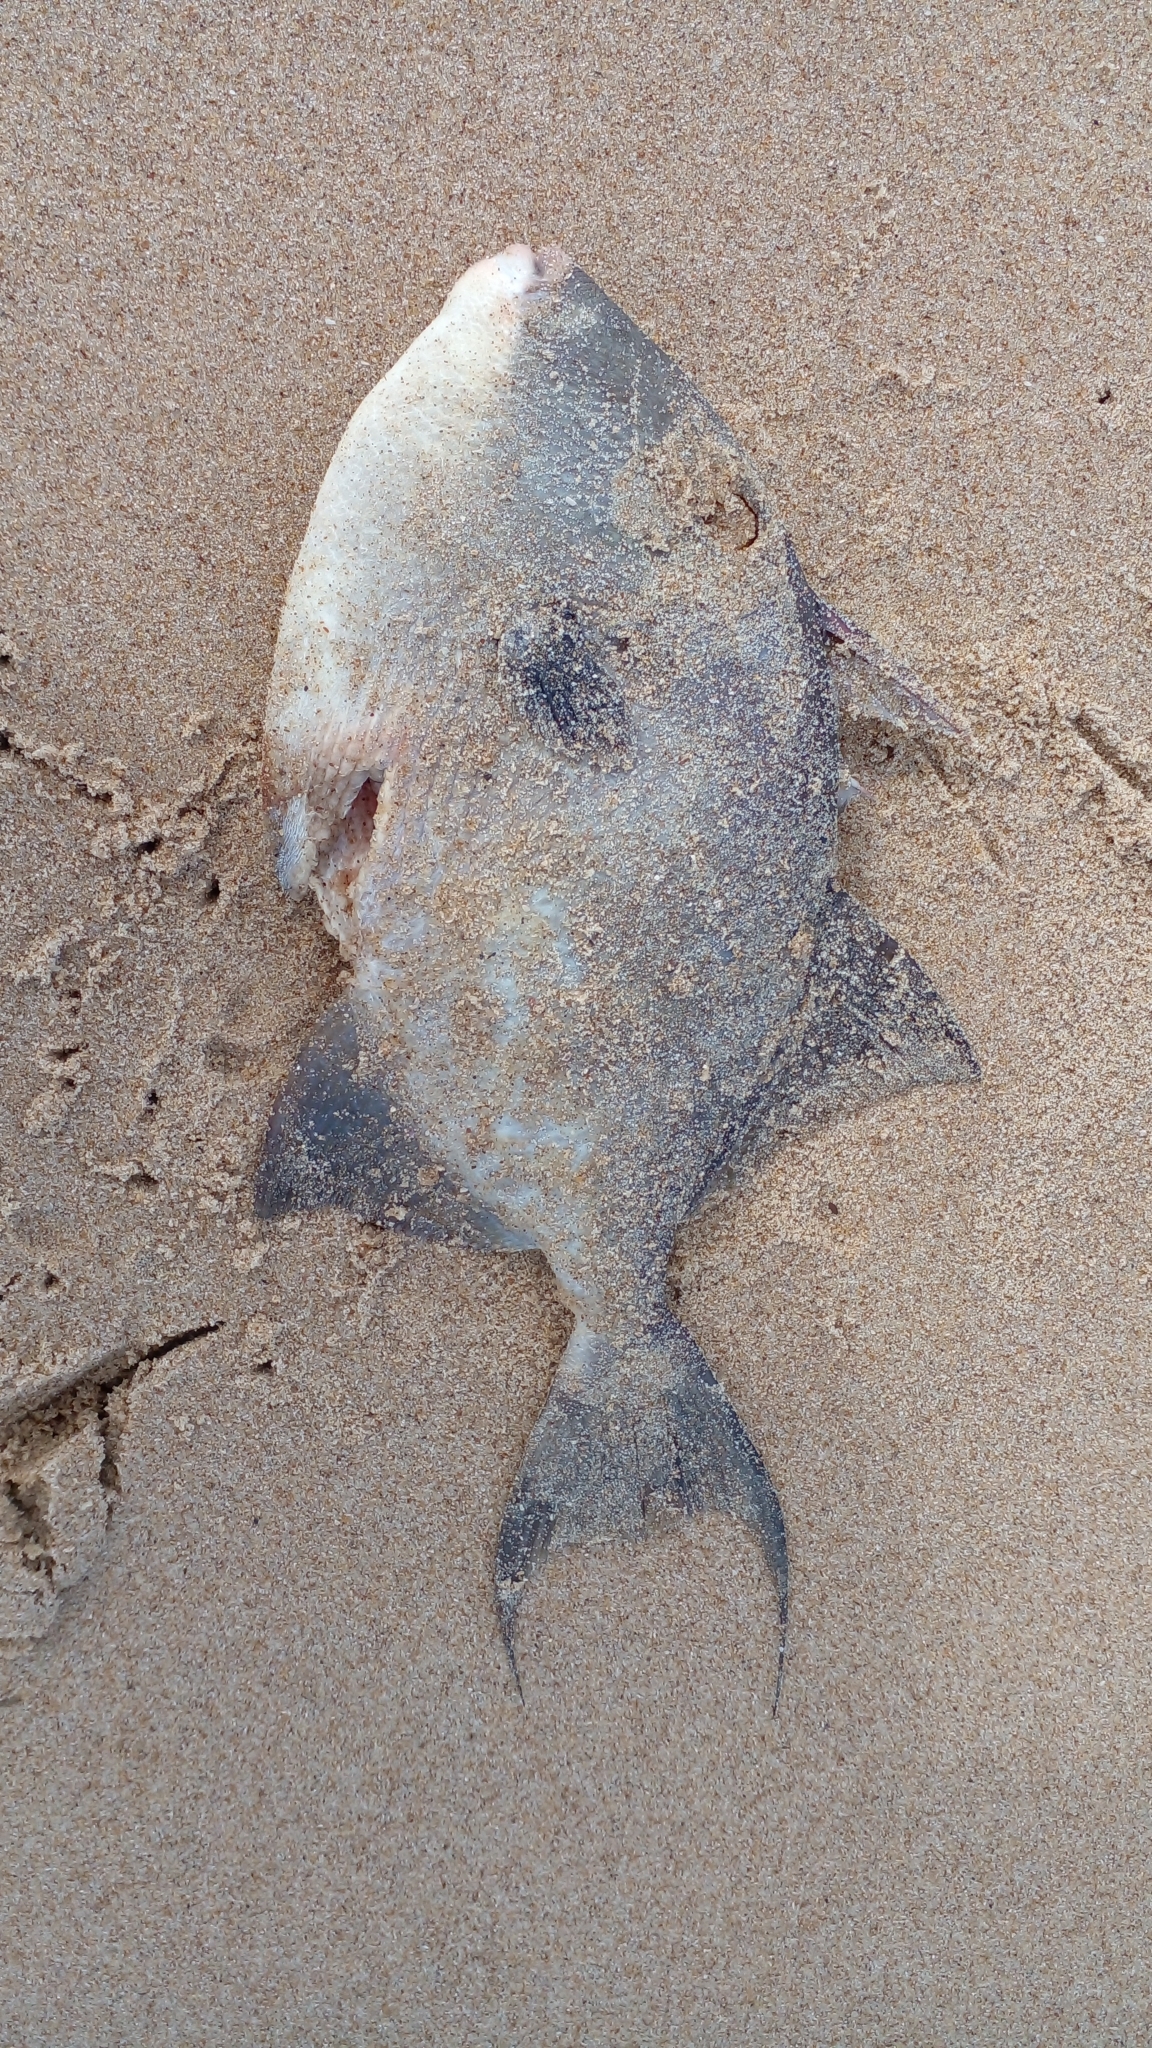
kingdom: Animalia
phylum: Chordata
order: Tetraodontiformes
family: Balistidae
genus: Balistes
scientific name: Balistes capriscus
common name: Grey triggerfish
